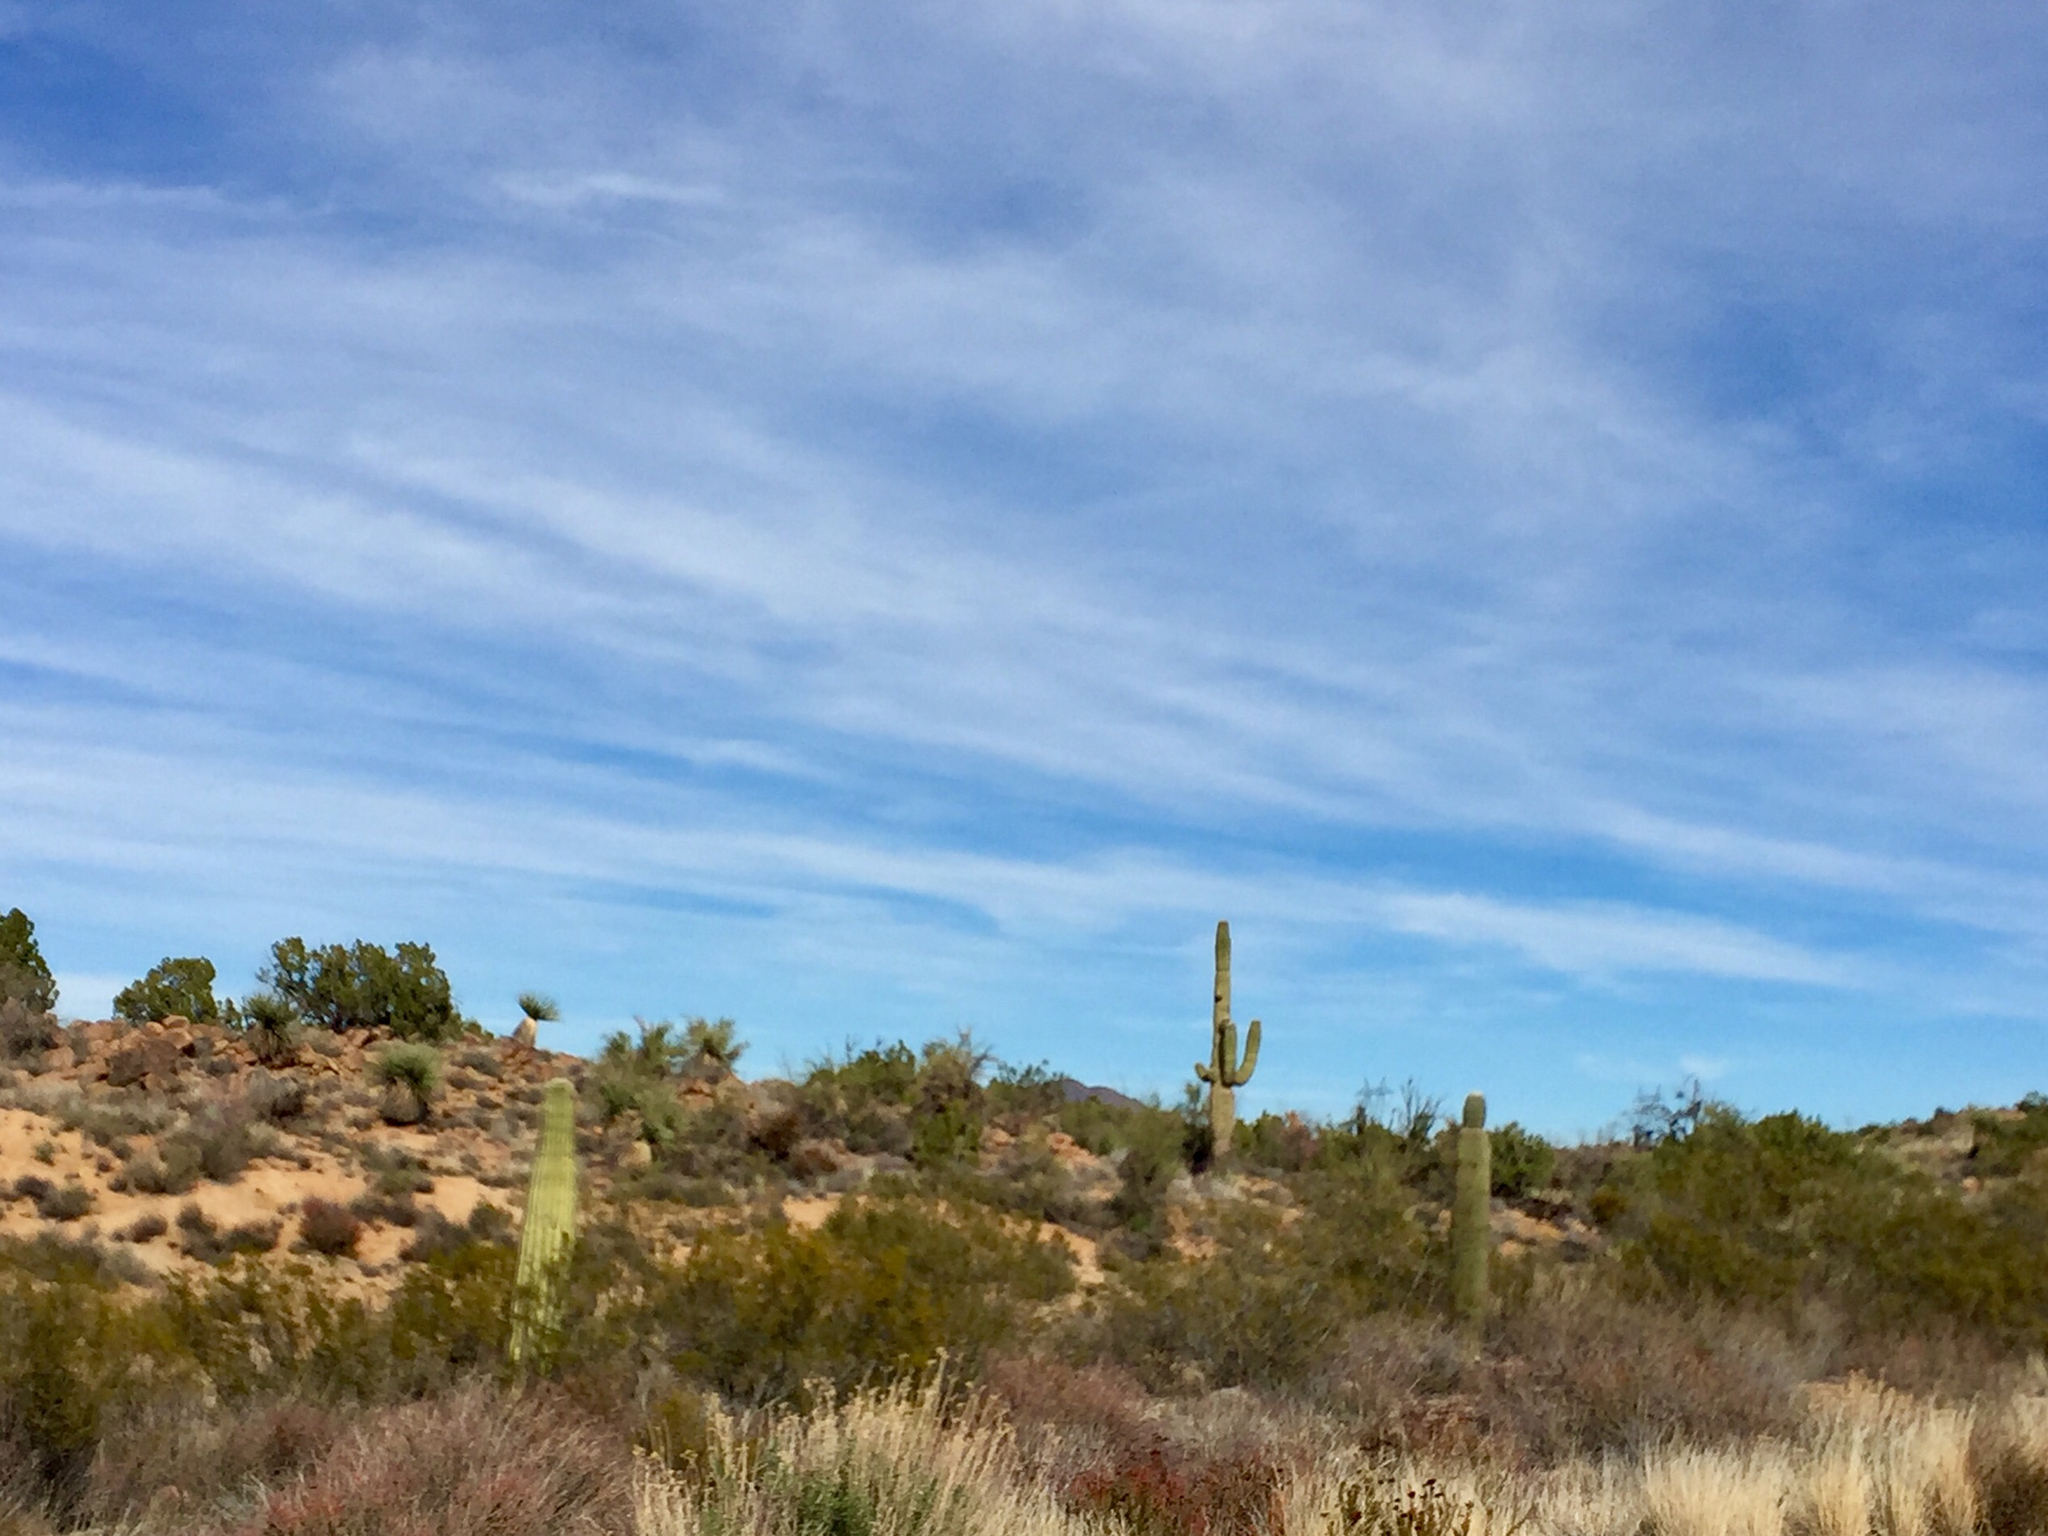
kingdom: Plantae
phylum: Tracheophyta
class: Magnoliopsida
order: Caryophyllales
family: Cactaceae
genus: Carnegiea
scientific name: Carnegiea gigantea
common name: Saguaro
